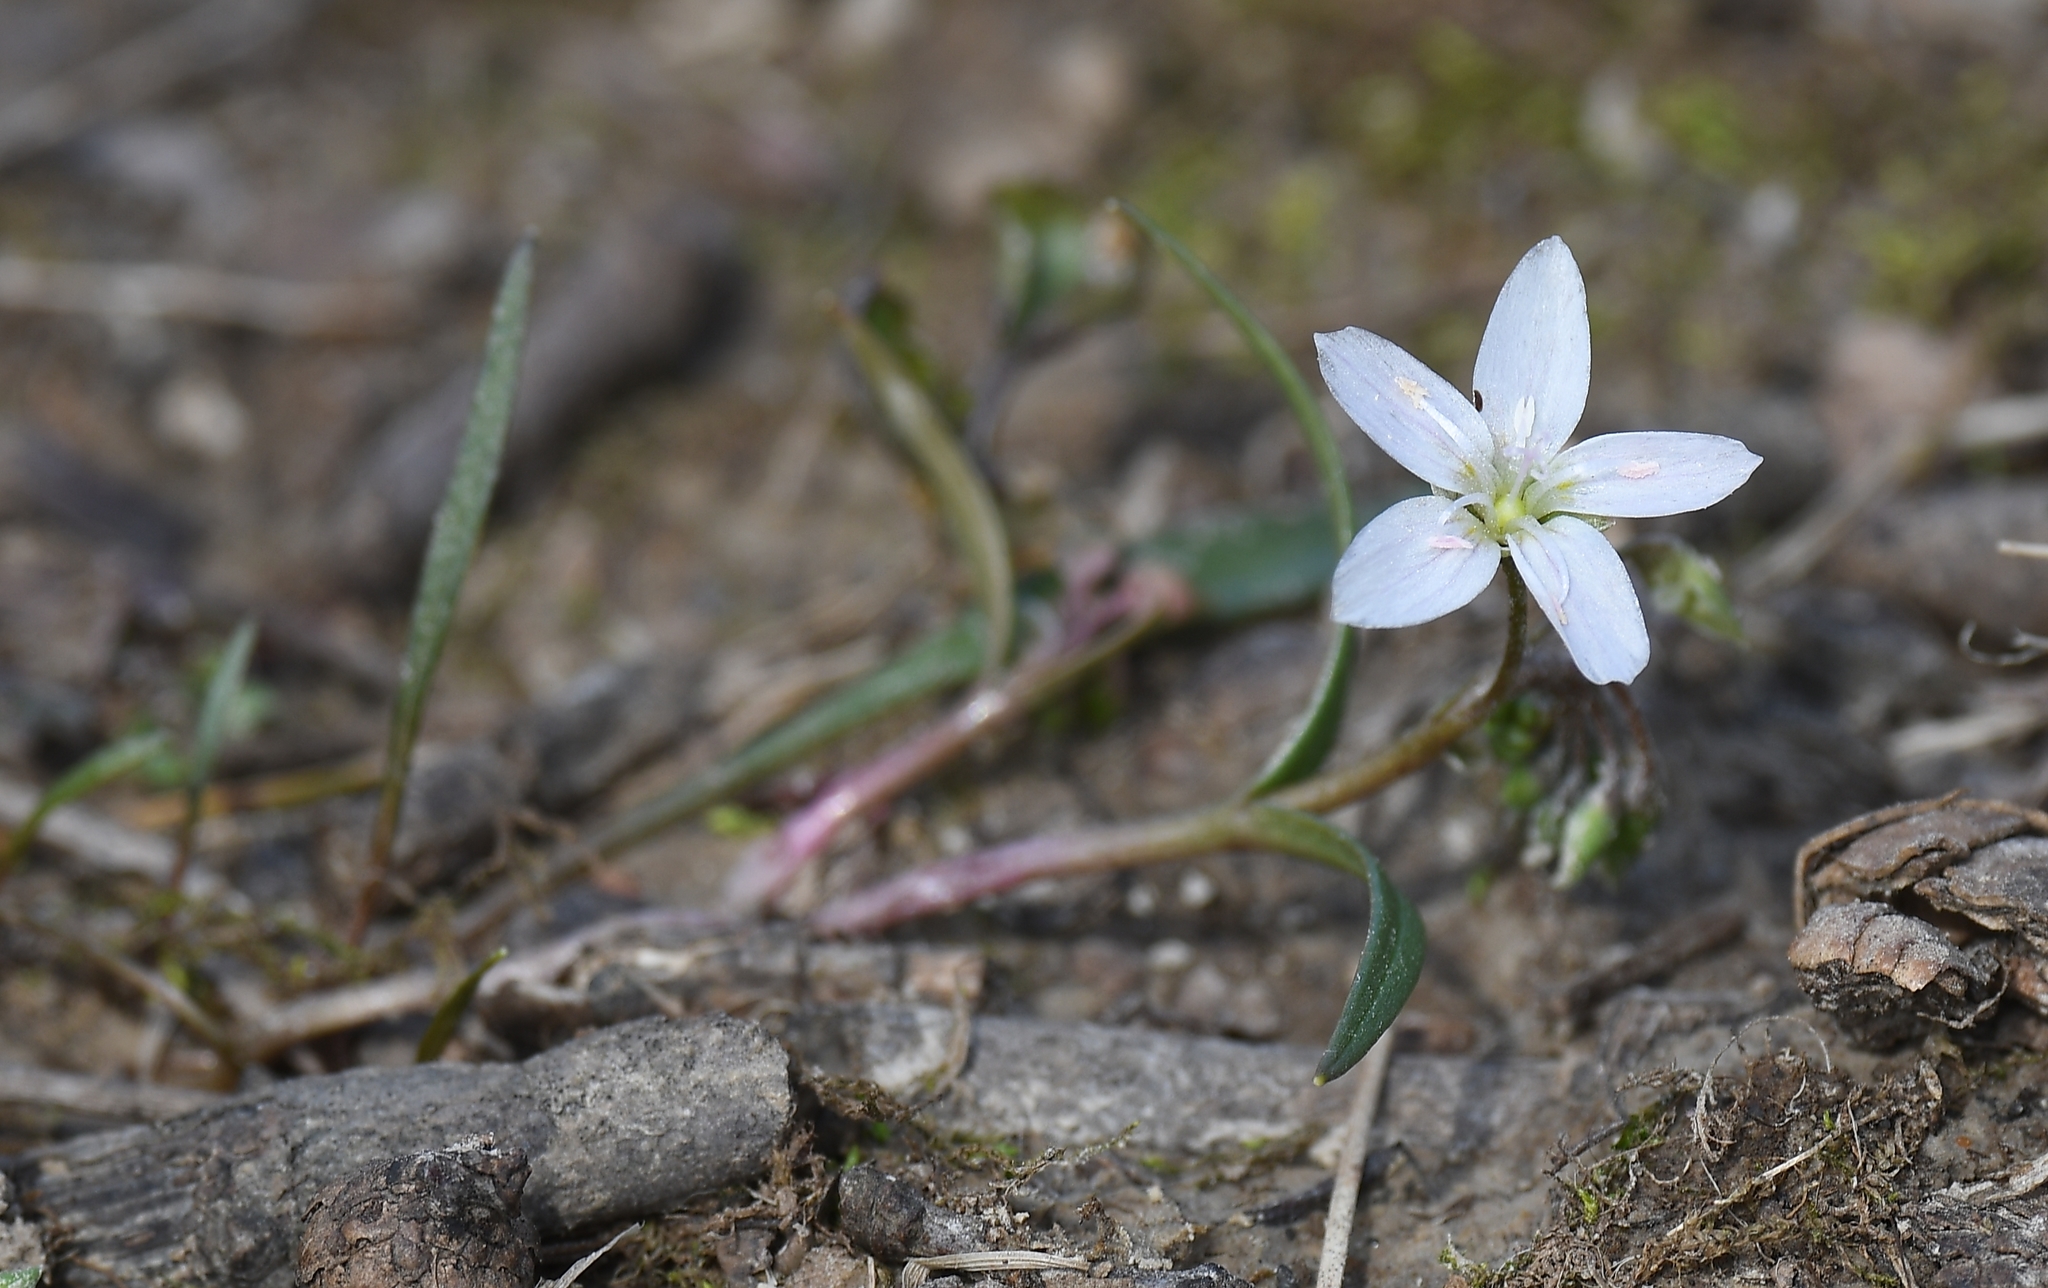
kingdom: Plantae
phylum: Tracheophyta
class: Magnoliopsida
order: Caryophyllales
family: Montiaceae
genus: Claytonia
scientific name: Claytonia virginica
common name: Virginia springbeauty
